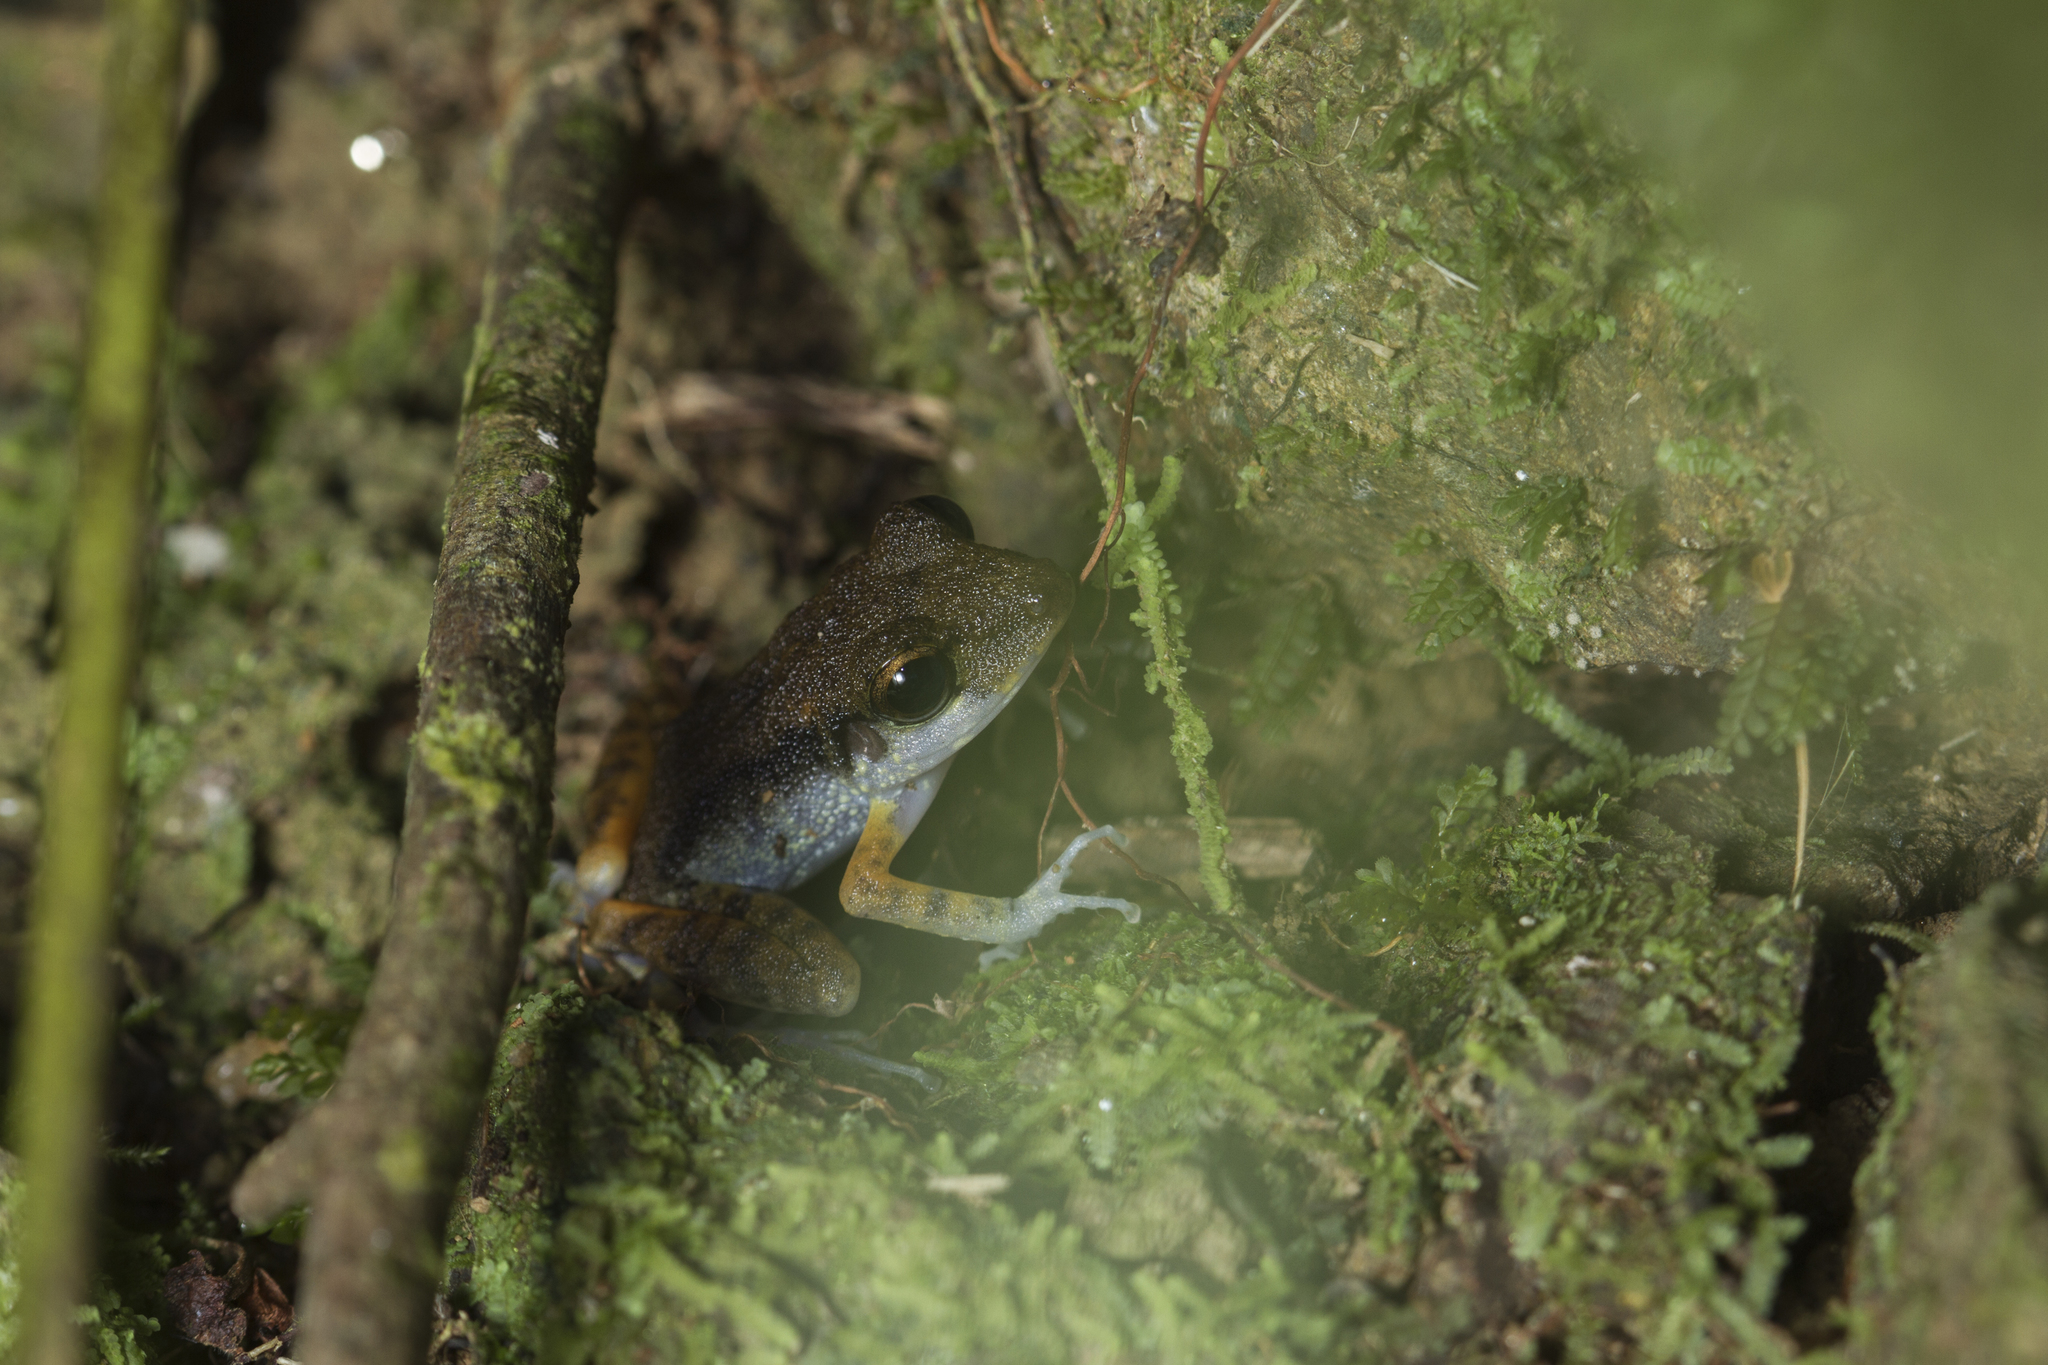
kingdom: Animalia
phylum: Chordata
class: Amphibia
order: Anura
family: Craugastoridae
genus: Pristimantis
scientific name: Pristimantis gaigei
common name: Fort randolph robber frog
